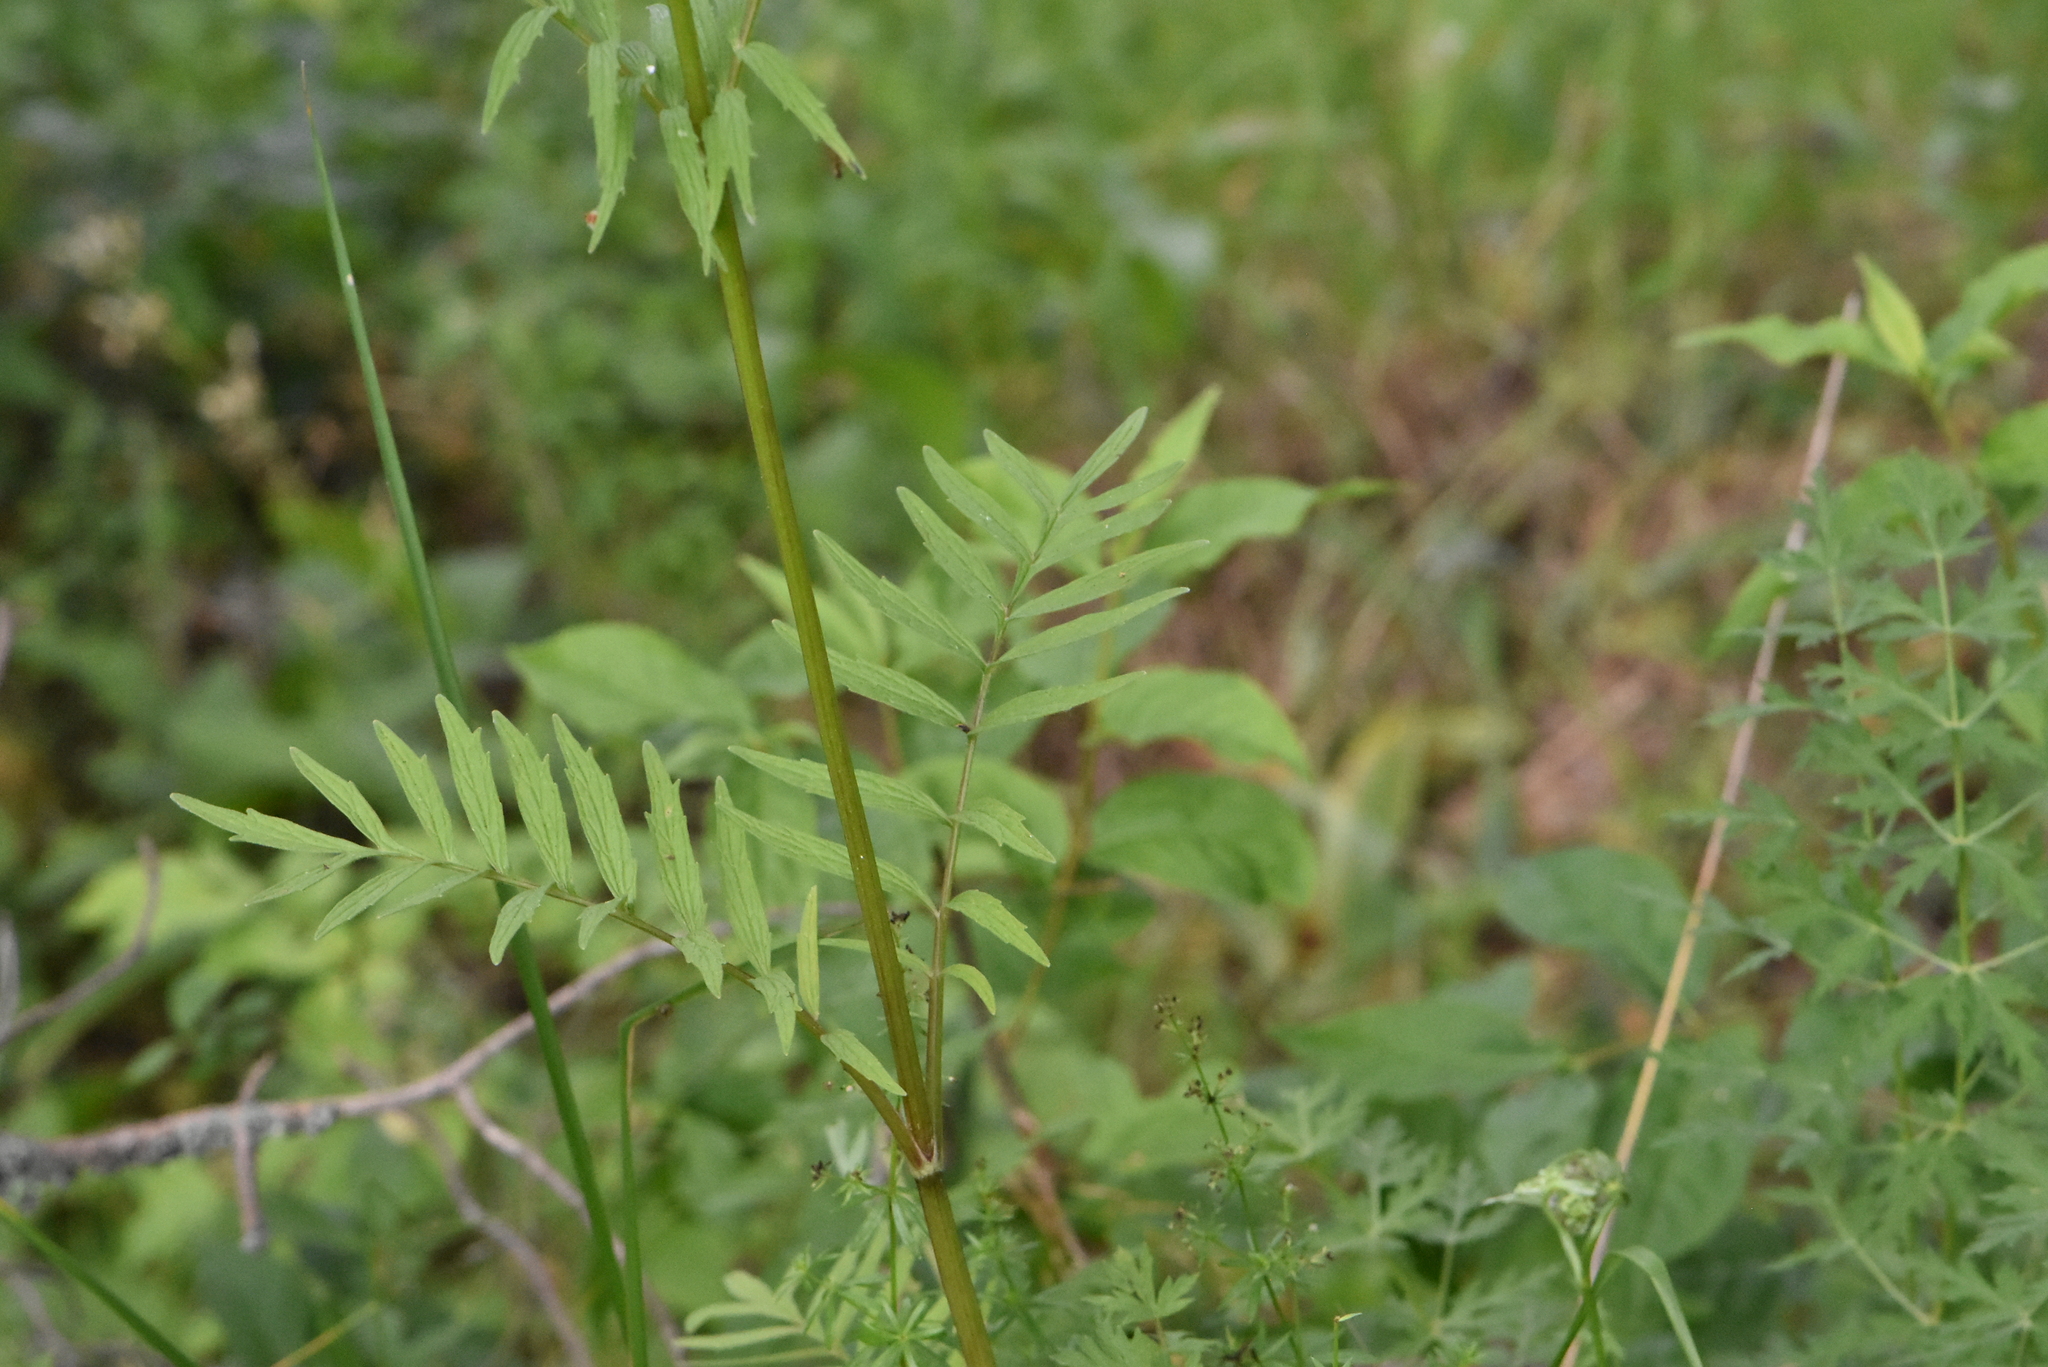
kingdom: Plantae
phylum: Tracheophyta
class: Magnoliopsida
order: Dipsacales
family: Caprifoliaceae
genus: Valeriana
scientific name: Valeriana officinalis
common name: Common valerian
